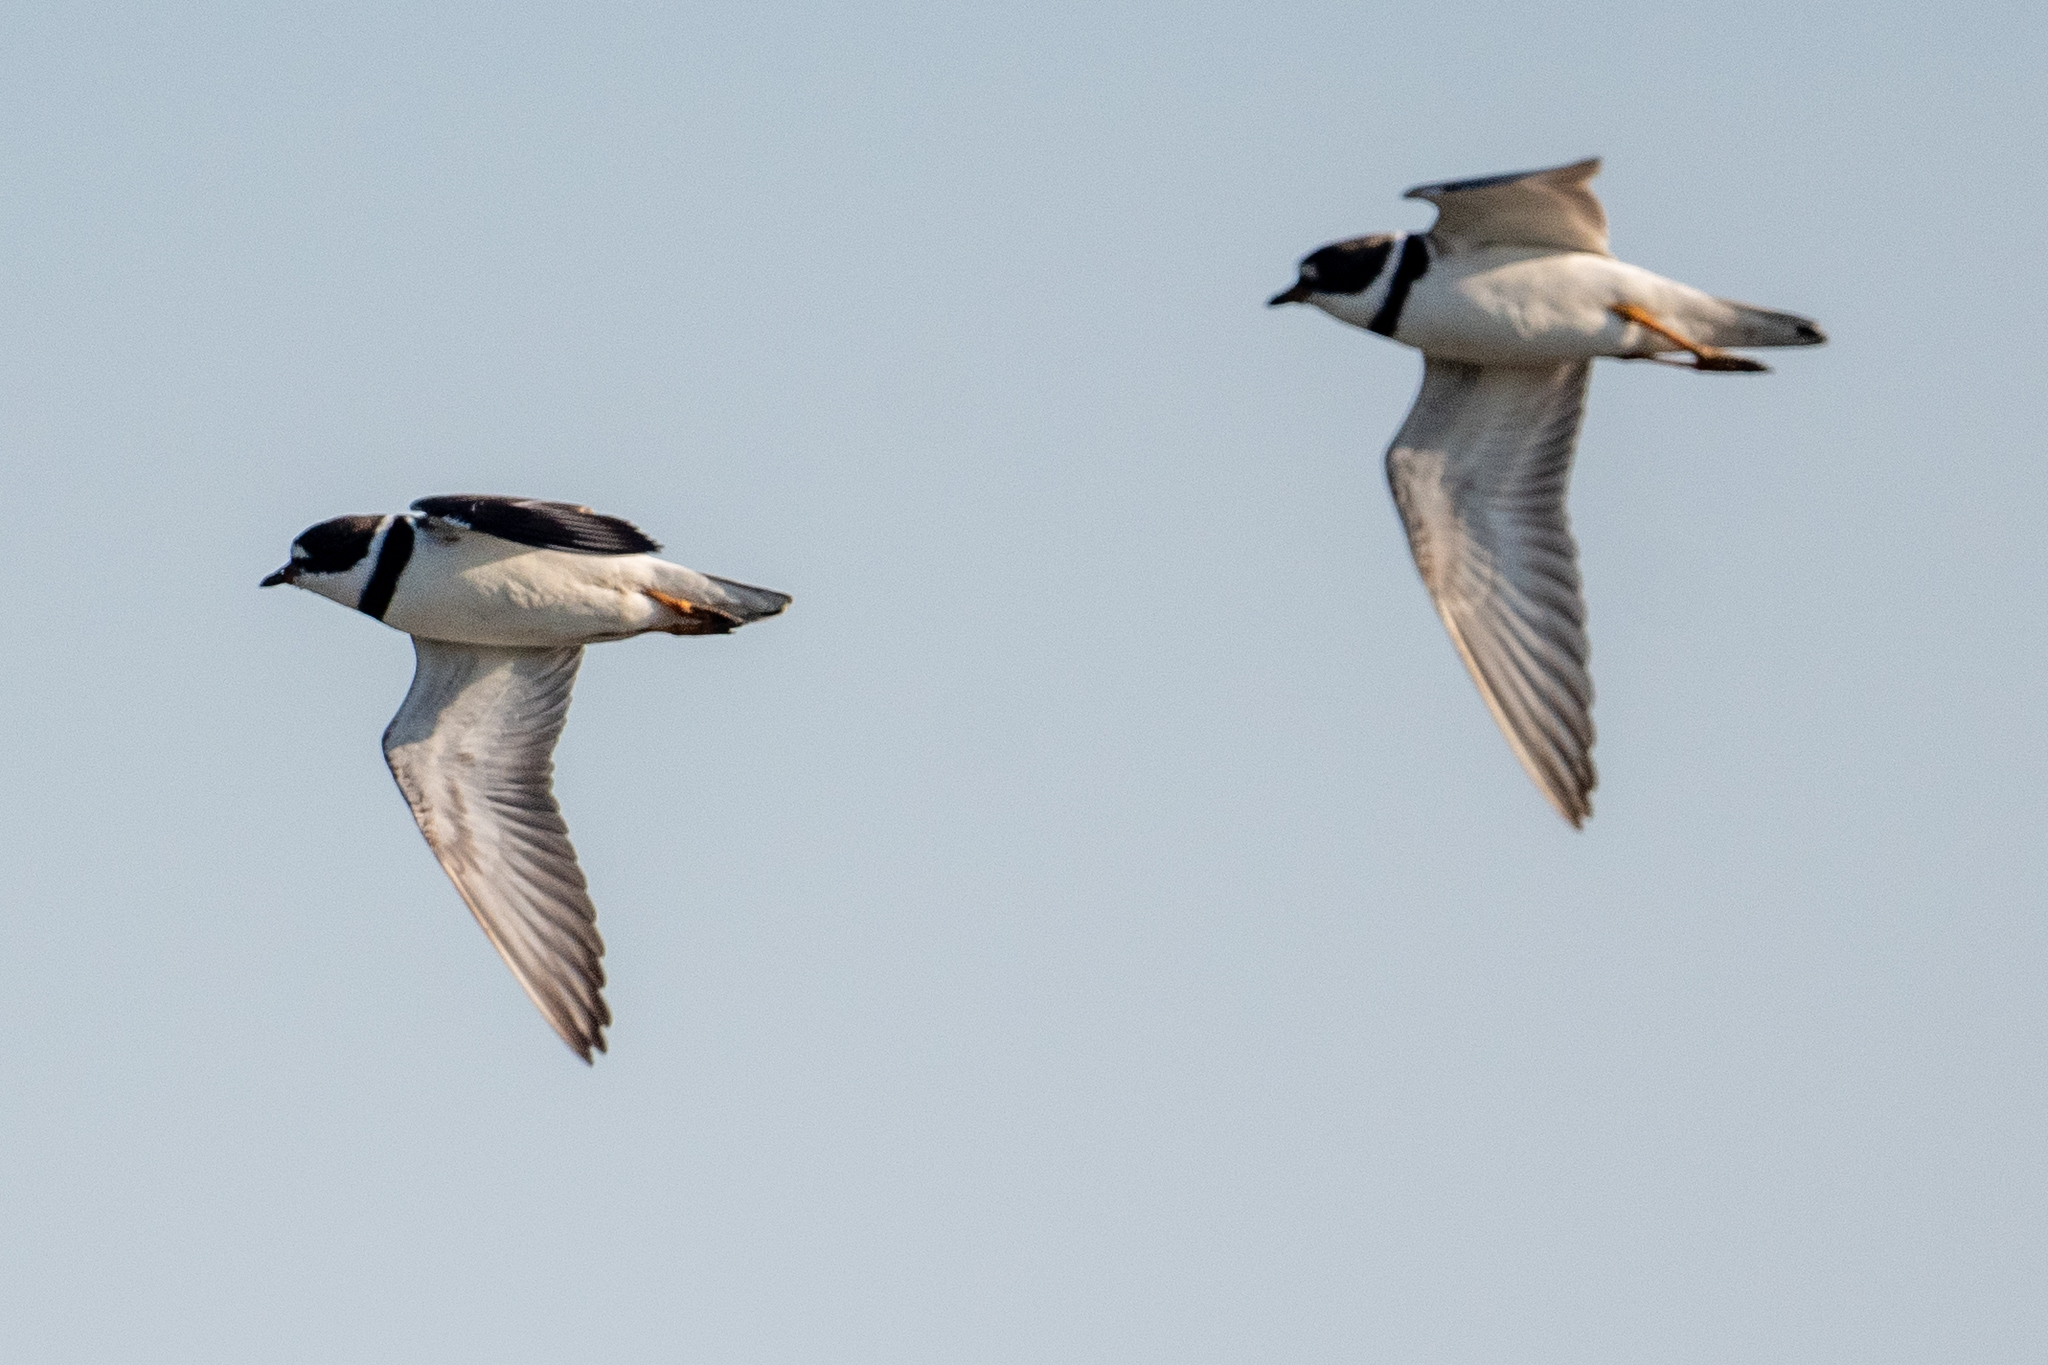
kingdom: Animalia
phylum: Chordata
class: Aves
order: Charadriiformes
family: Charadriidae
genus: Charadrius
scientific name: Charadrius semipalmatus
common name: Semipalmated plover
